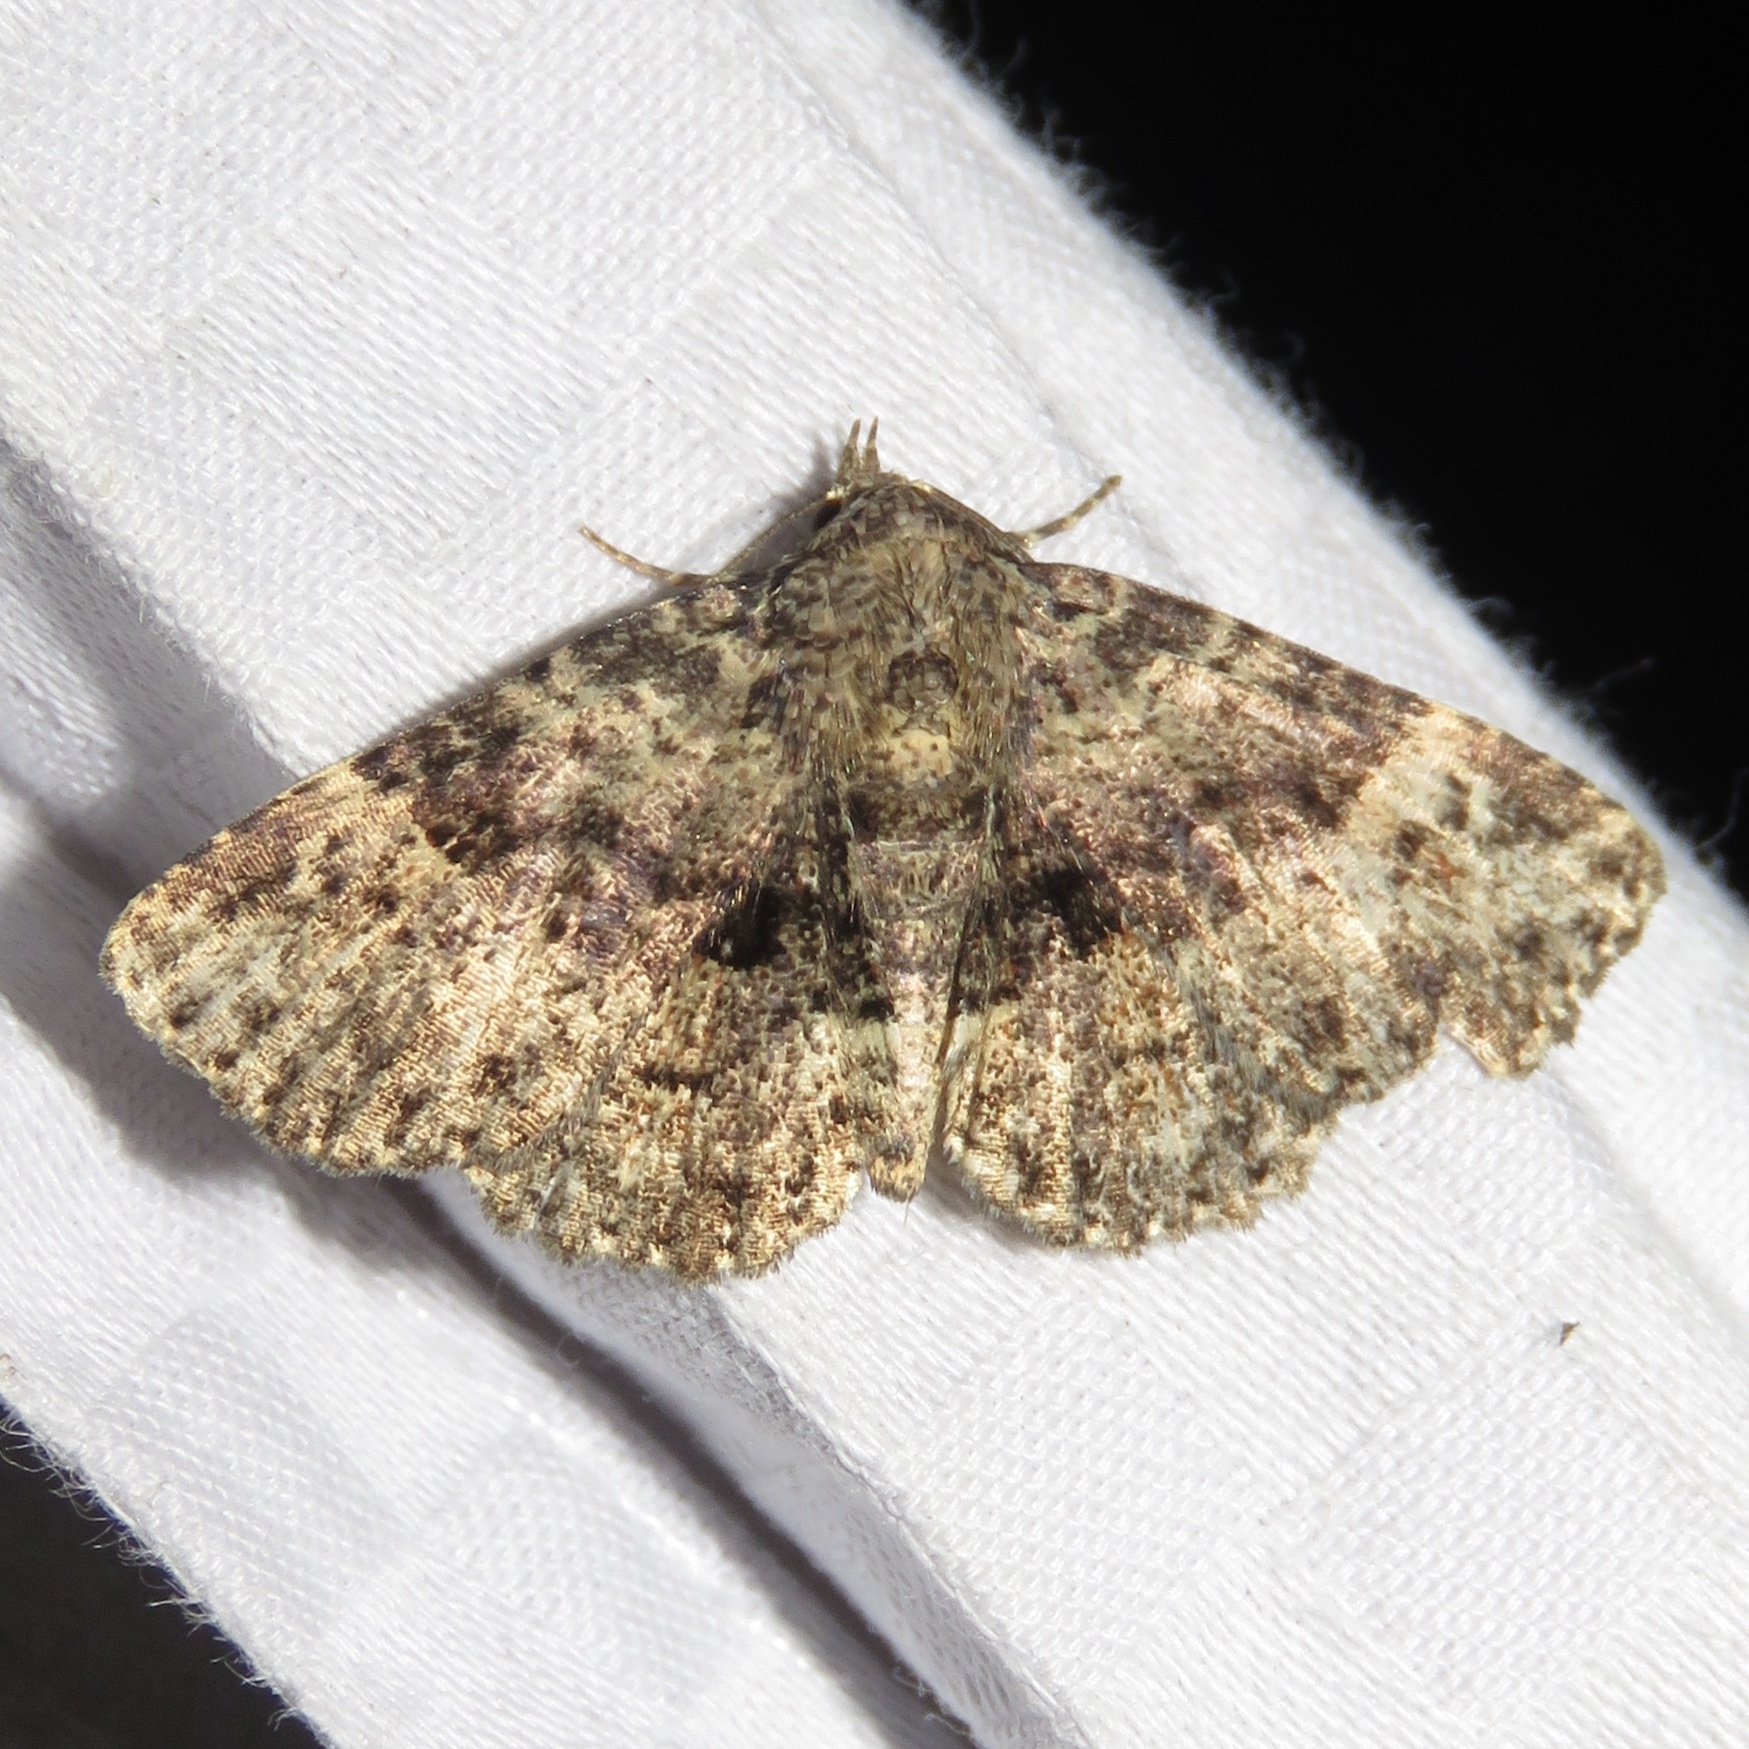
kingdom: Animalia
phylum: Arthropoda
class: Insecta
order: Lepidoptera
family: Erebidae
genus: Metalectra
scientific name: Metalectra discalis
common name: Common fungus moth
